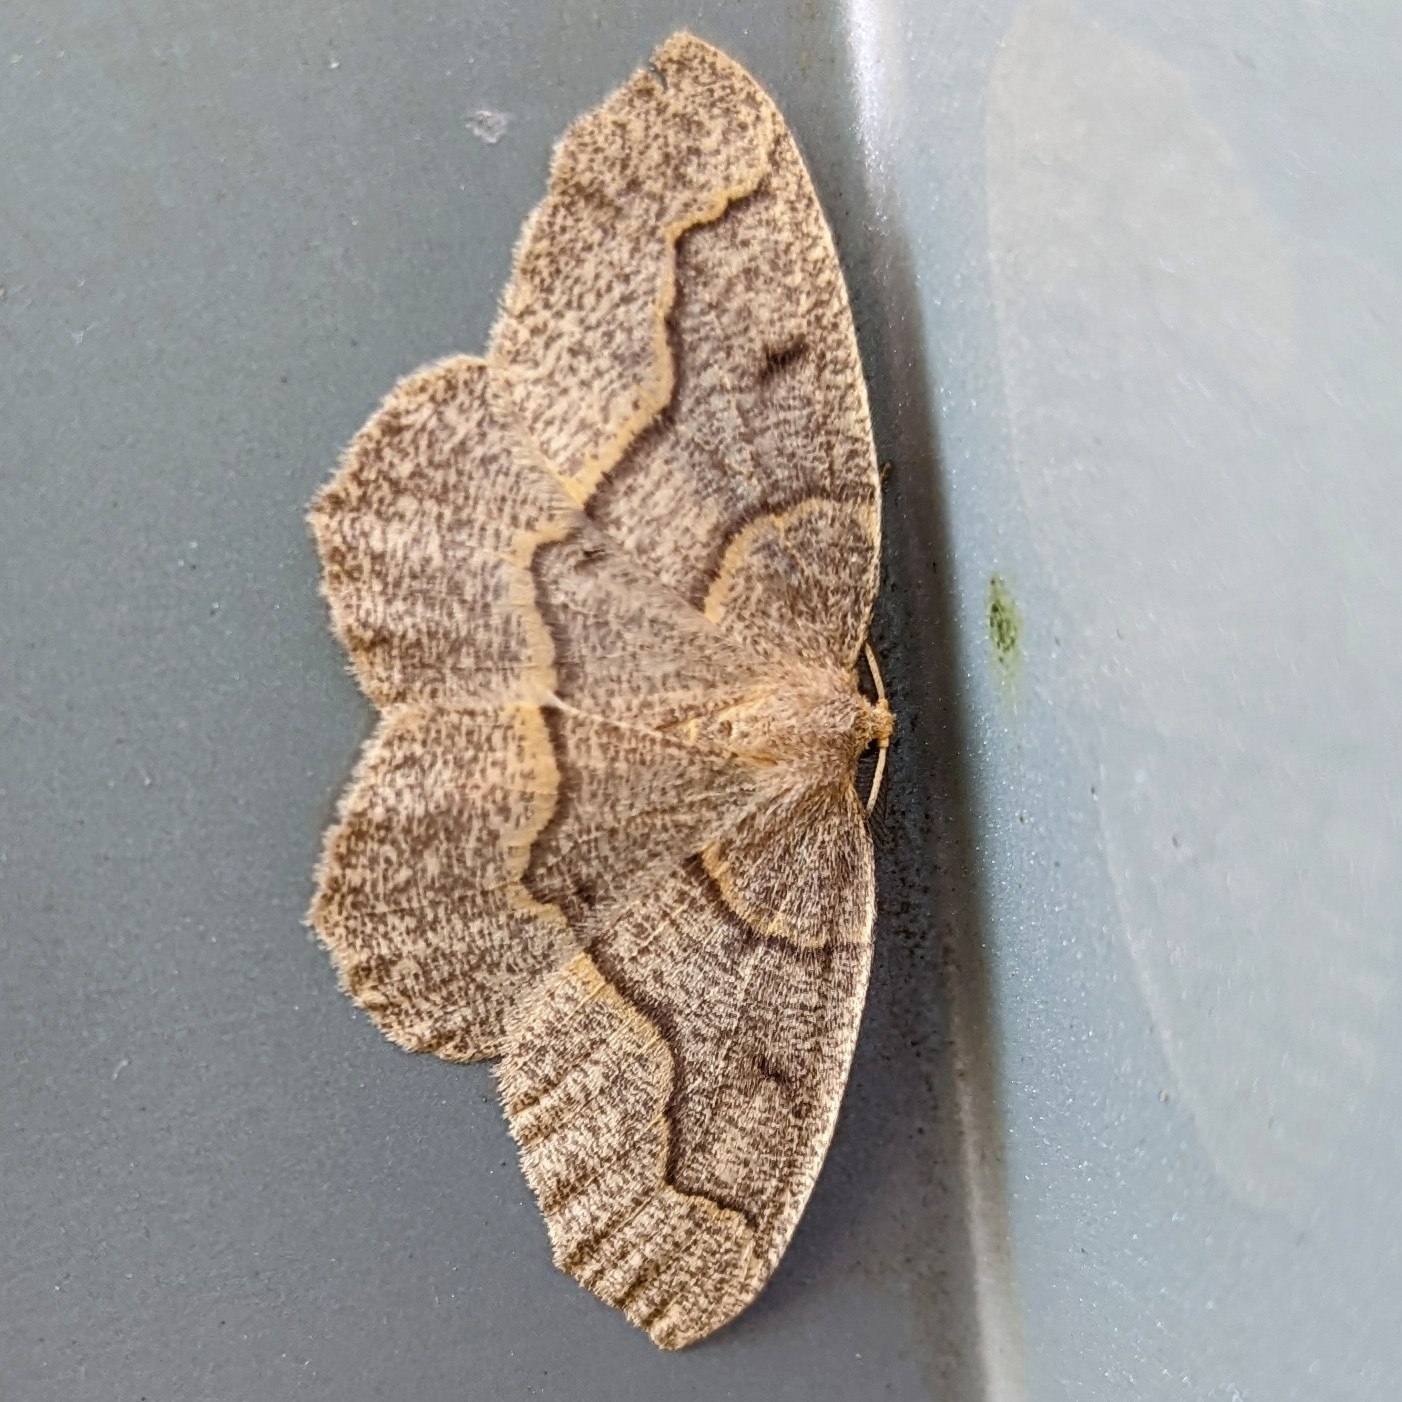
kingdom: Animalia
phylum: Arthropoda
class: Insecta
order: Lepidoptera
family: Geometridae
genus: Lambdina
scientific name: Lambdina fiscellaria
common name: Hemlock looper
